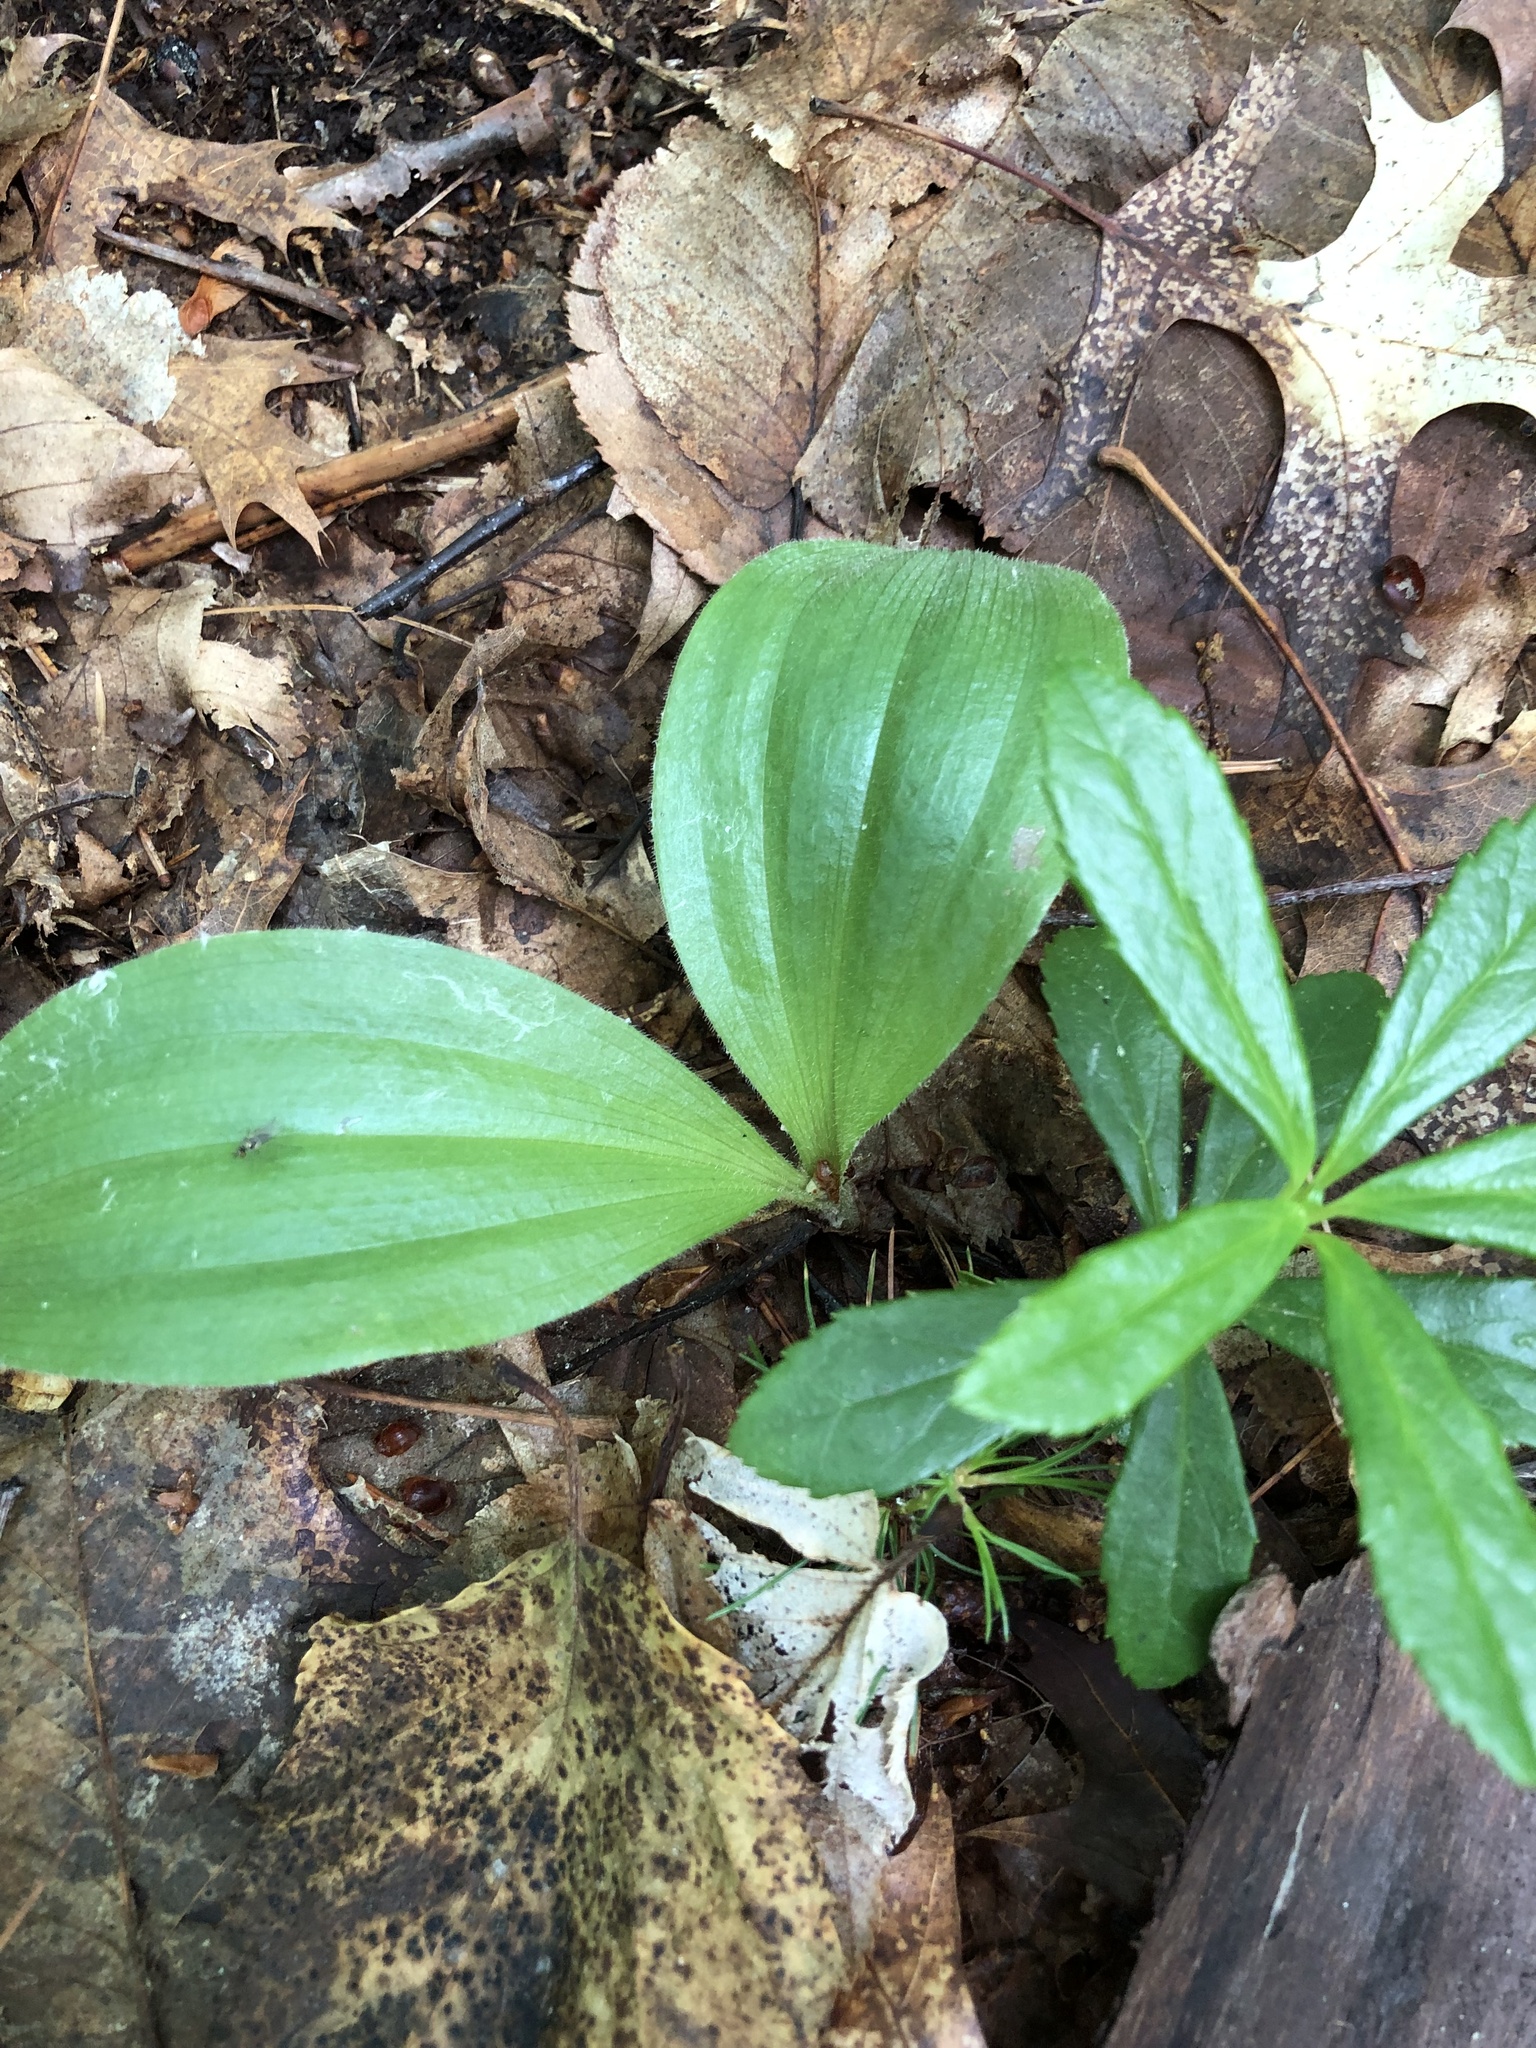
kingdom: Plantae
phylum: Tracheophyta
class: Liliopsida
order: Asparagales
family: Orchidaceae
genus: Cypripedium
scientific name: Cypripedium acaule
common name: Pink lady's-slipper
